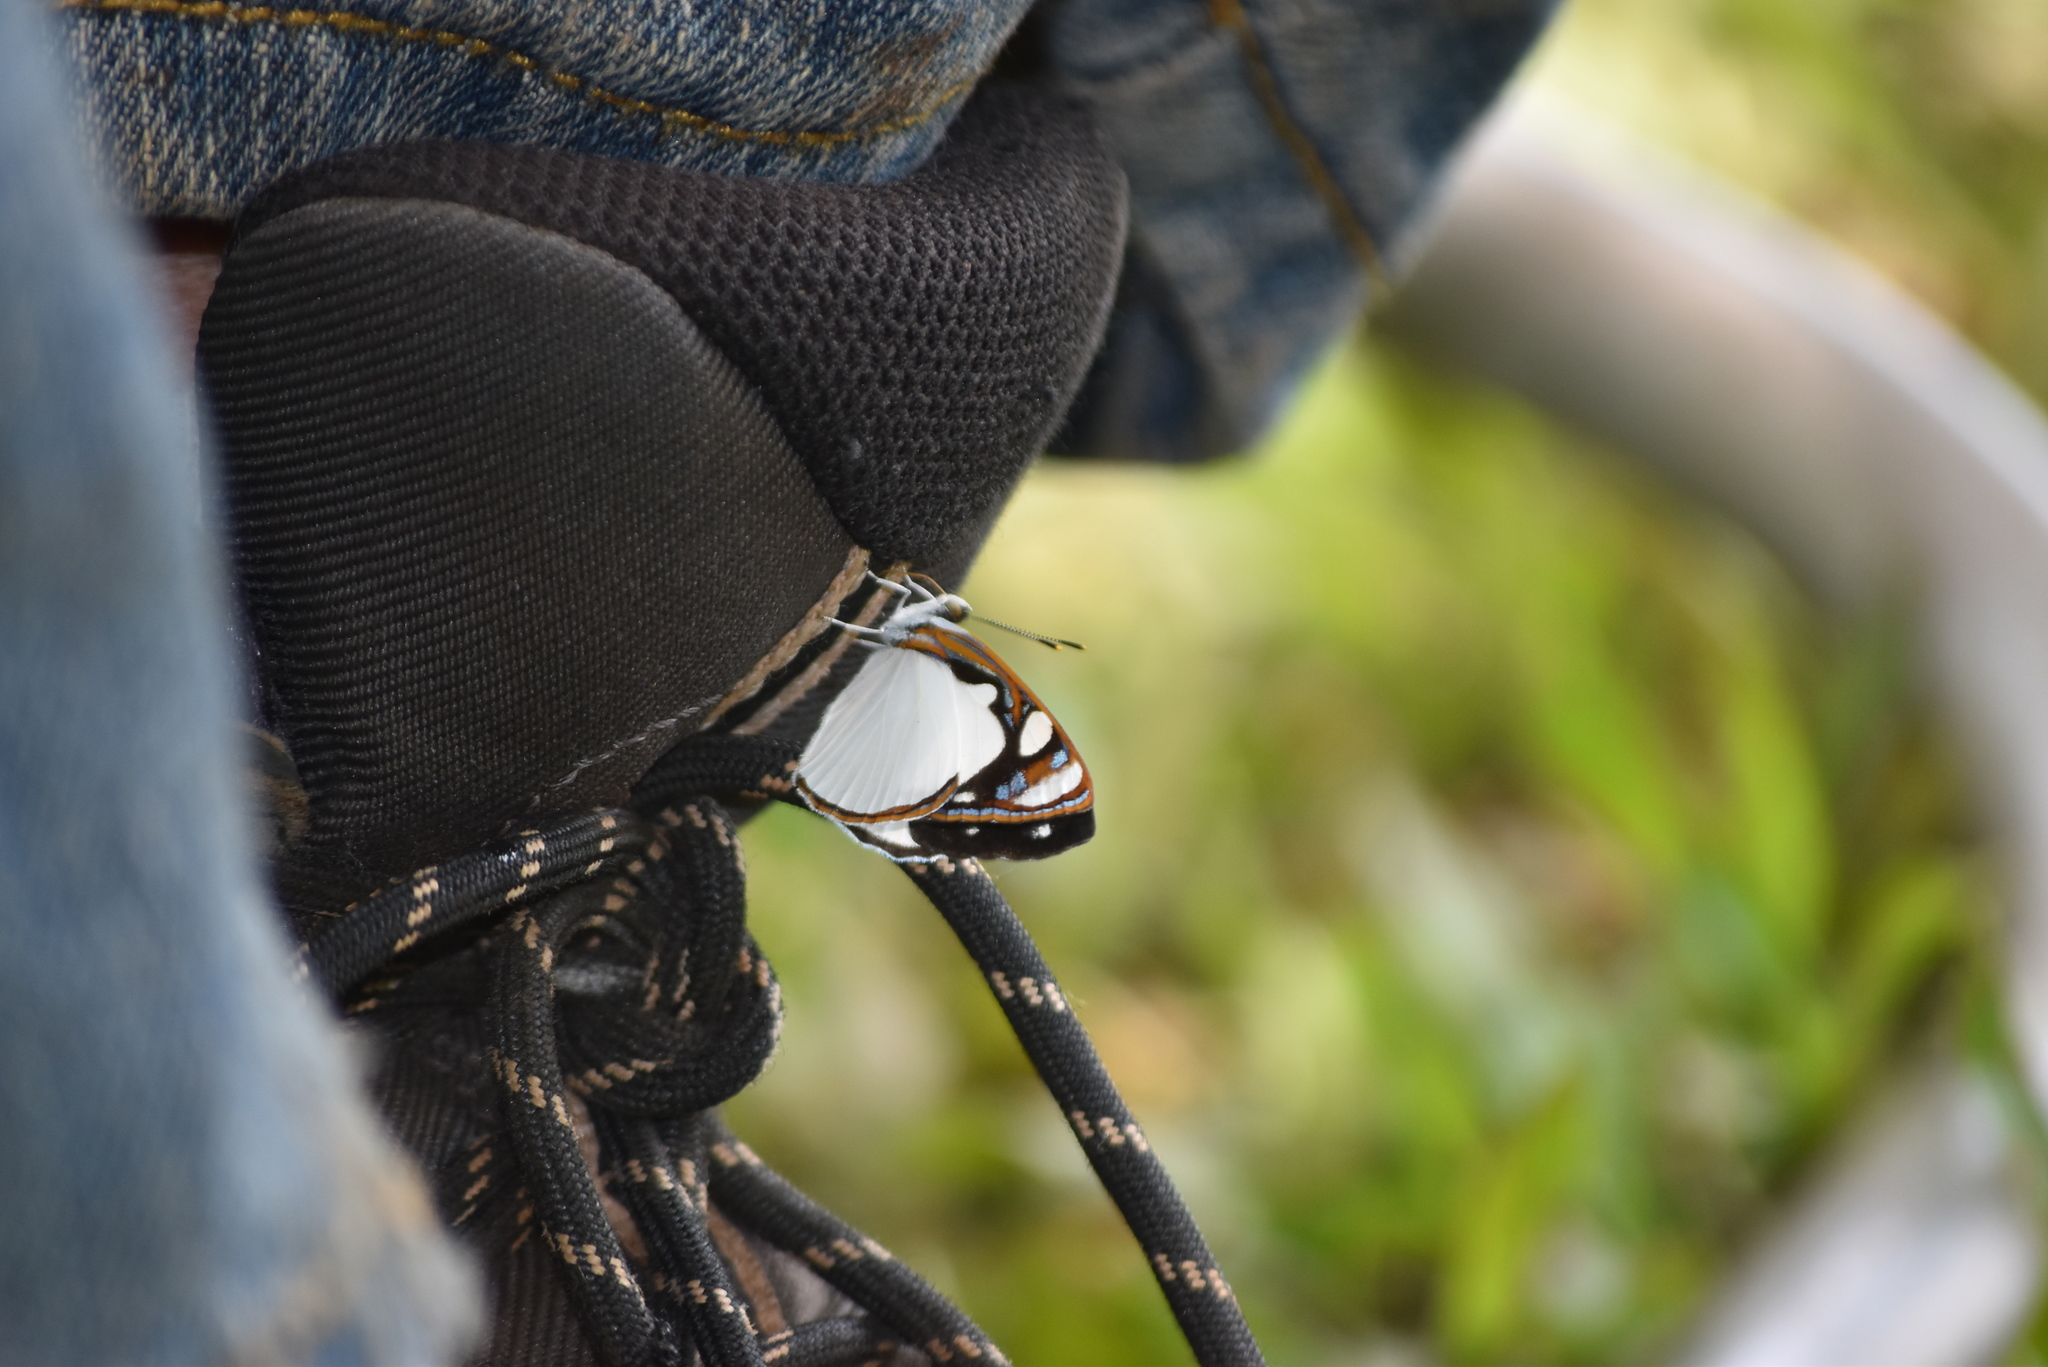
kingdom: Animalia
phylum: Arthropoda
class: Insecta
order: Lepidoptera
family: Nymphalidae
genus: Dynamine
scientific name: Dynamine coenus
